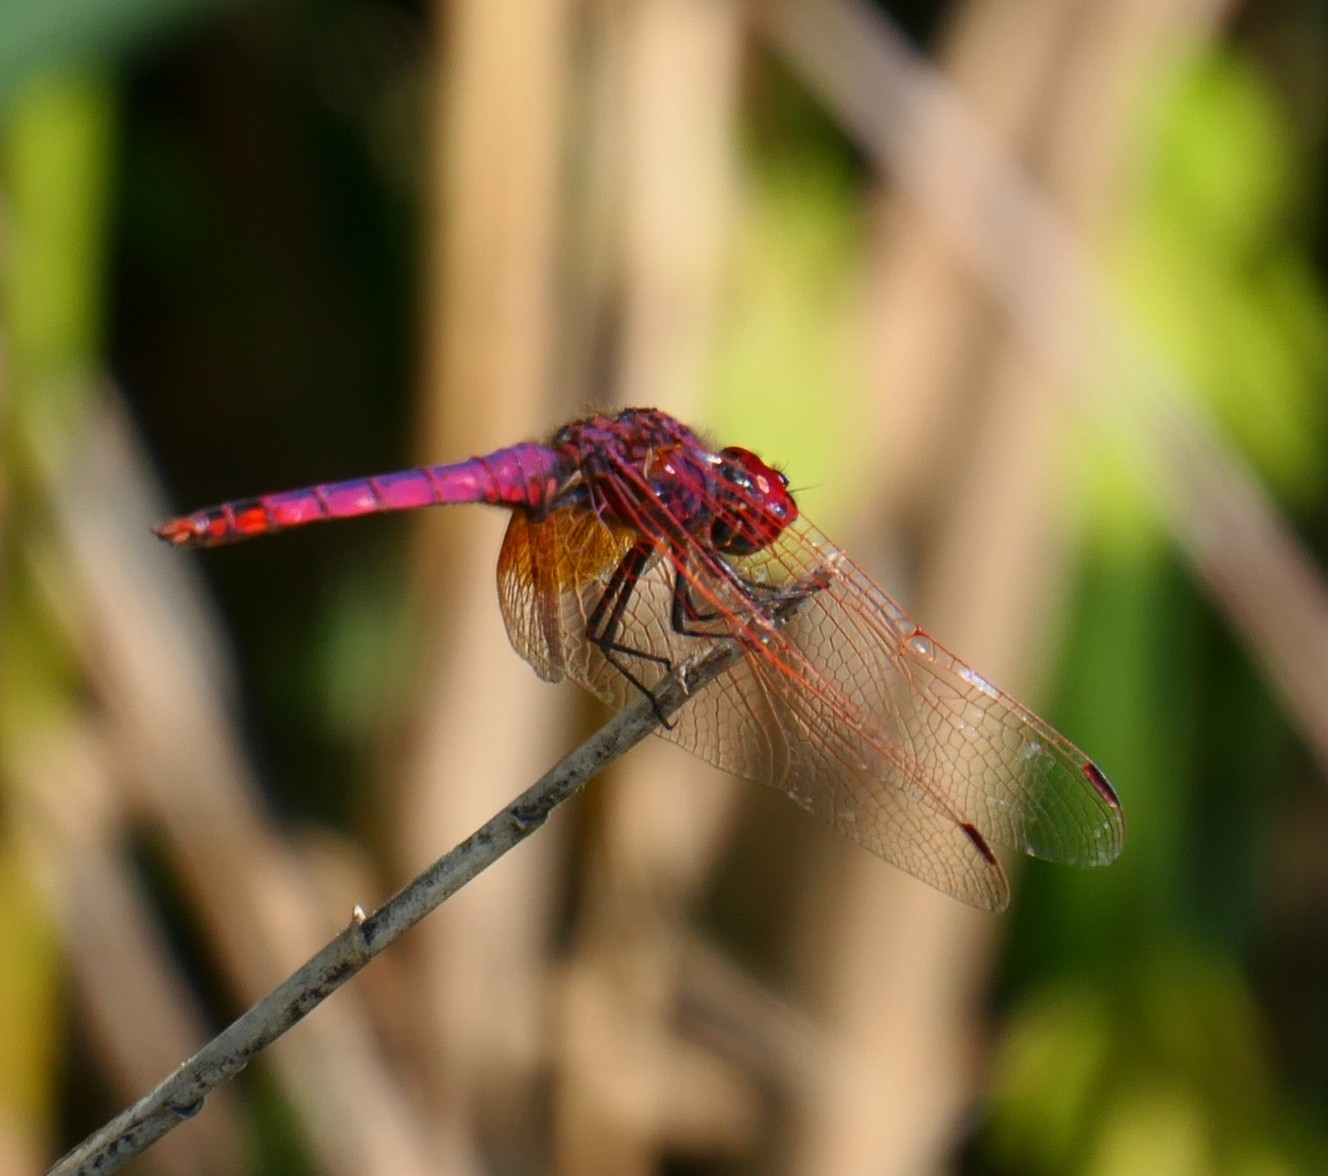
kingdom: Animalia
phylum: Arthropoda
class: Insecta
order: Odonata
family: Libellulidae
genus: Trithemis
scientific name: Trithemis annulata
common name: Violet dropwing
